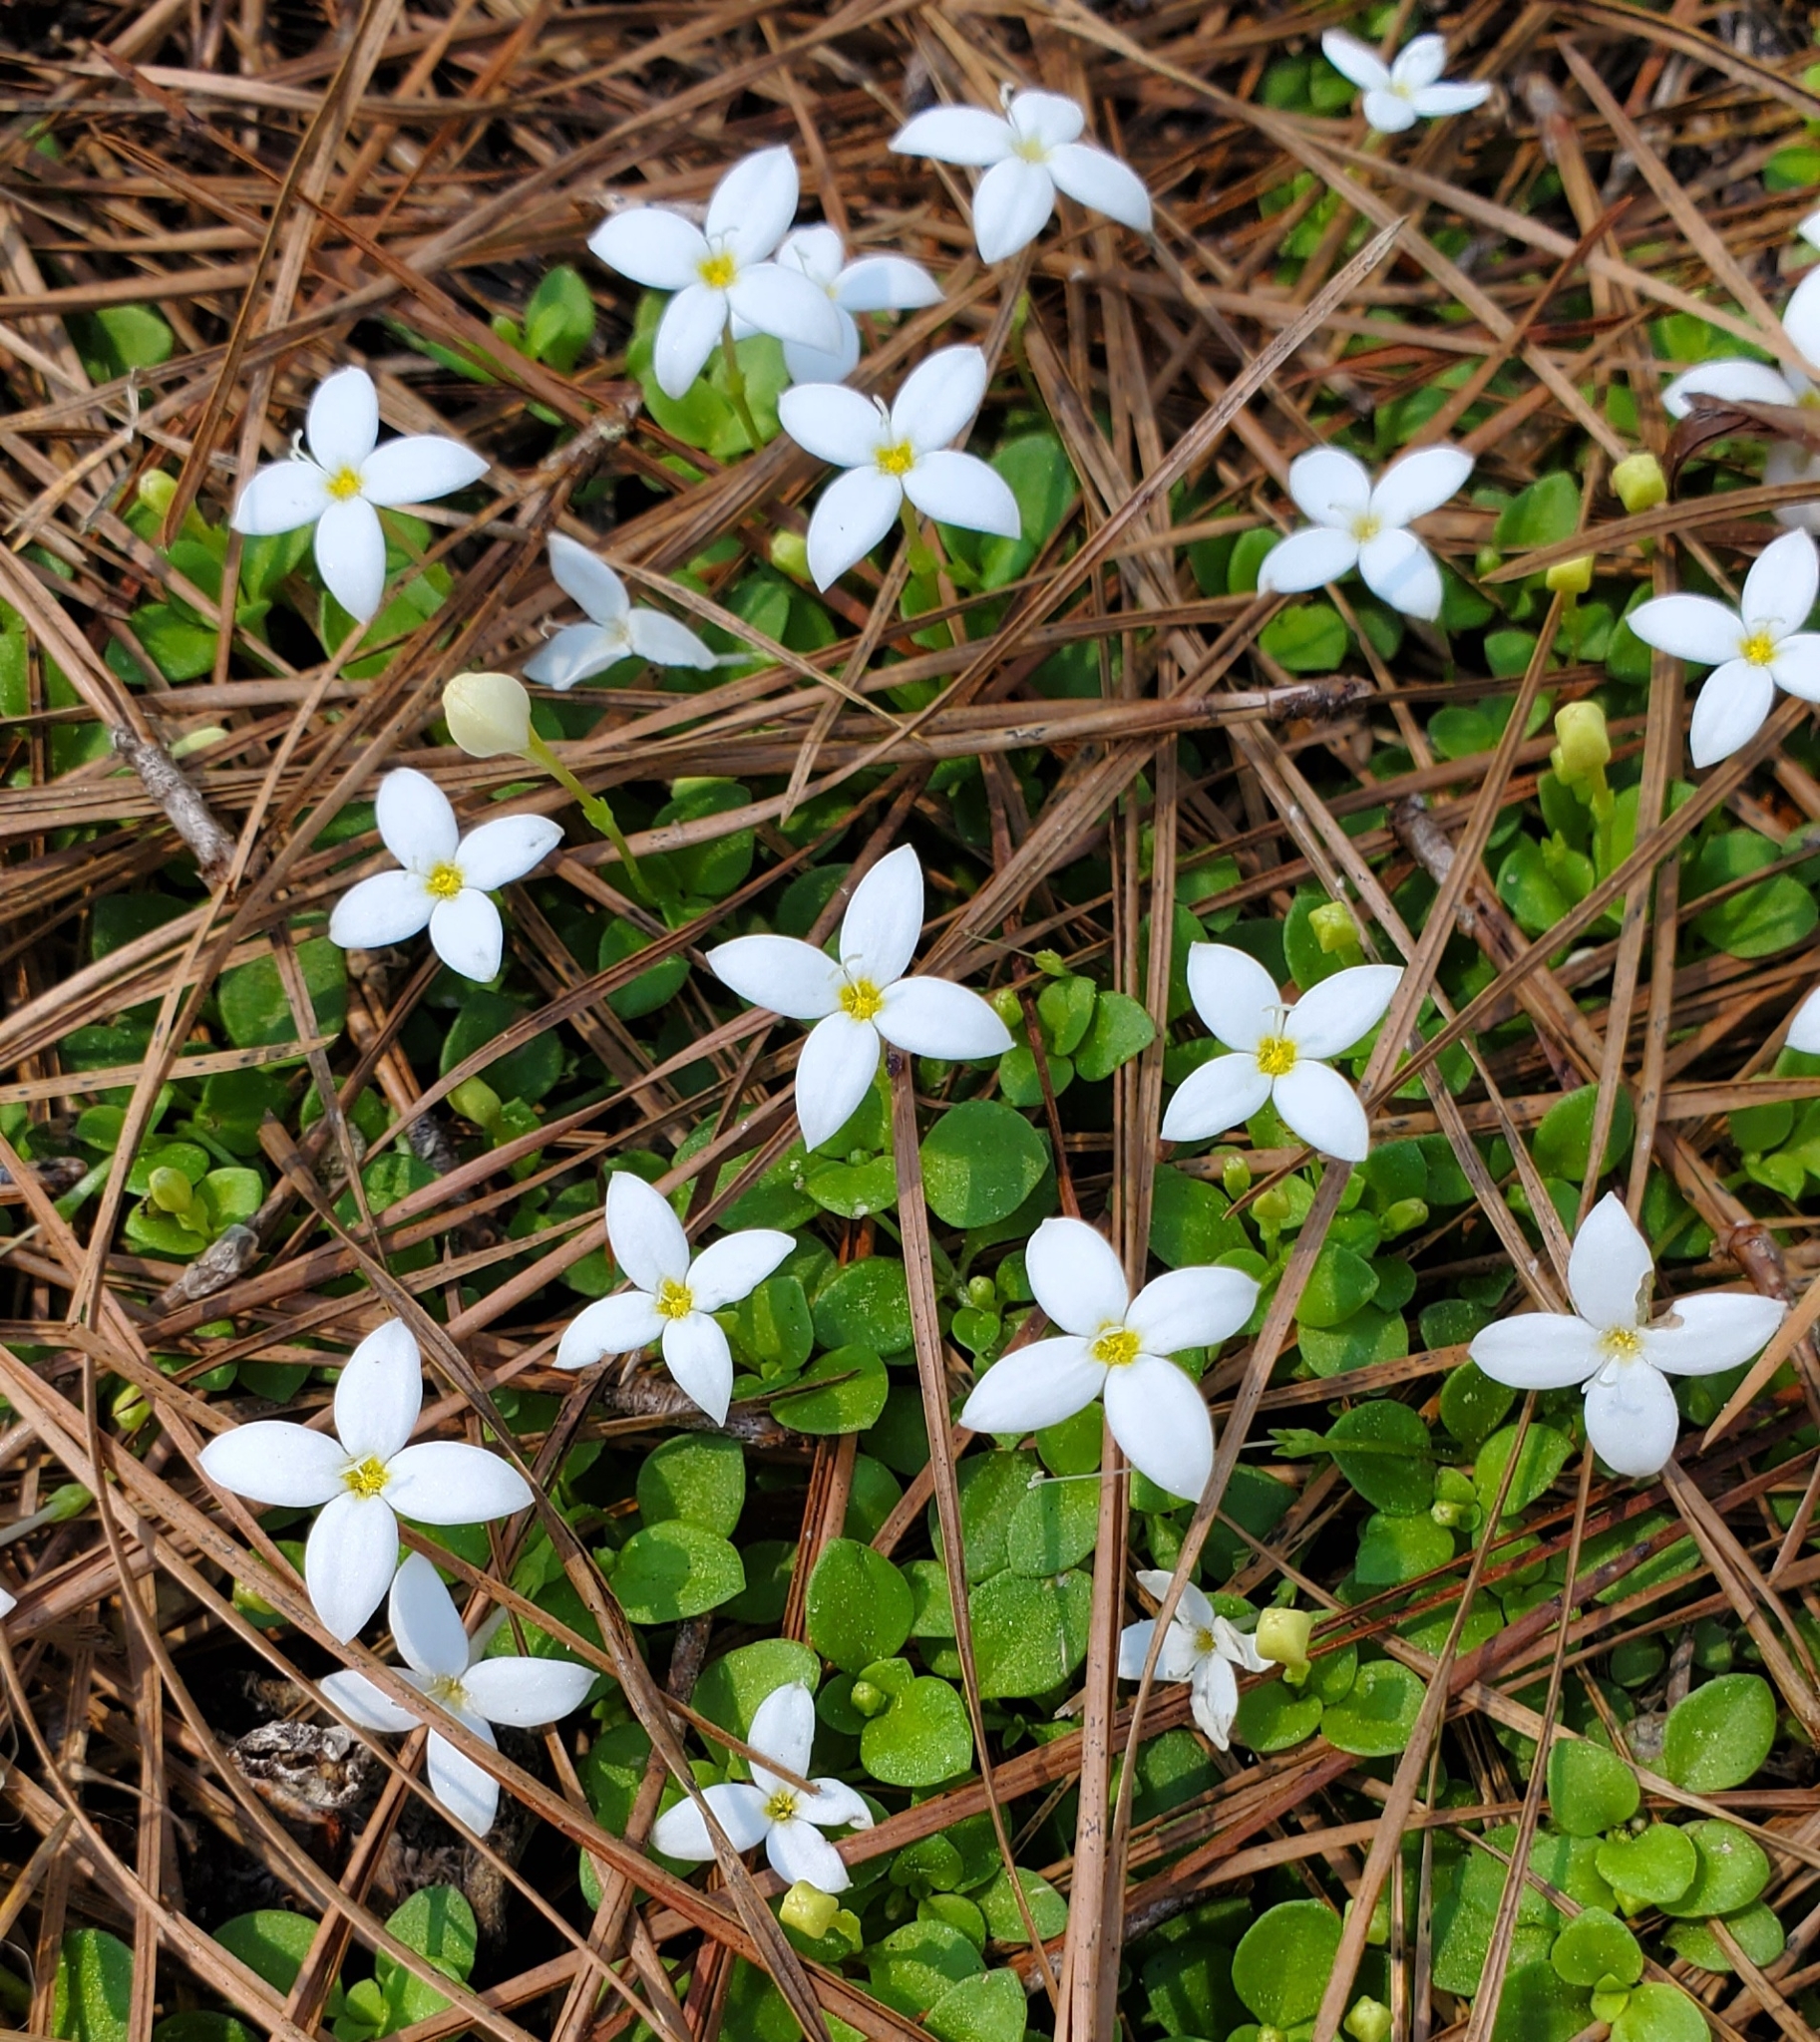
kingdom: Plantae
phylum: Tracheophyta
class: Magnoliopsida
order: Gentianales
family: Rubiaceae
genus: Houstonia
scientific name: Houstonia procumbens
